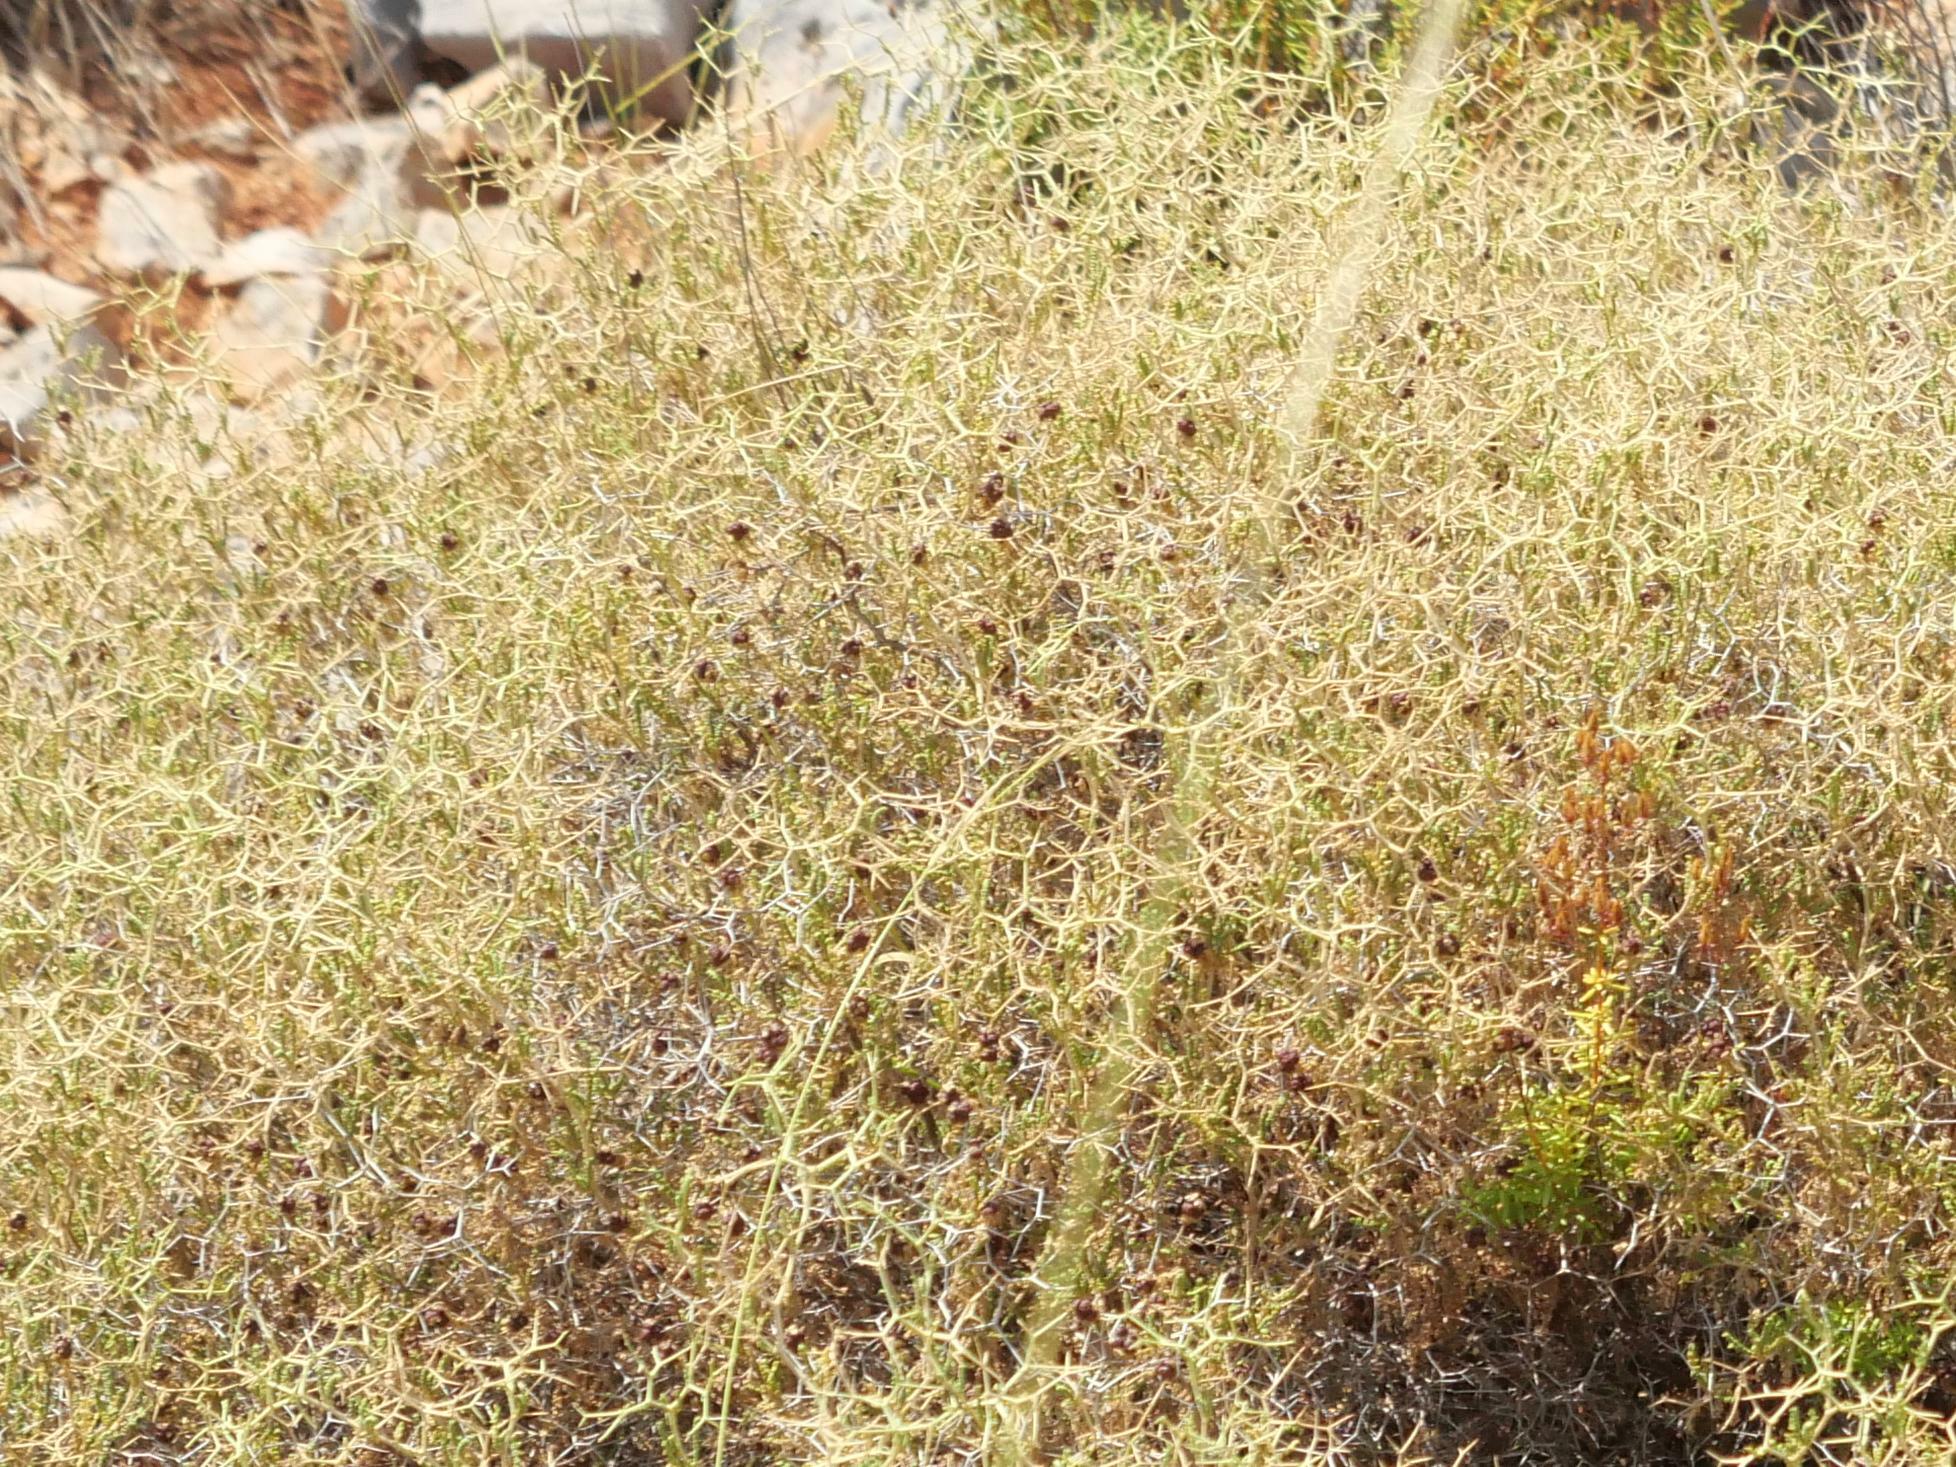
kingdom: Plantae
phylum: Tracheophyta
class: Magnoliopsida
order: Rosales
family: Rosaceae
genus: Sarcopoterium
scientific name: Sarcopoterium spinosum
